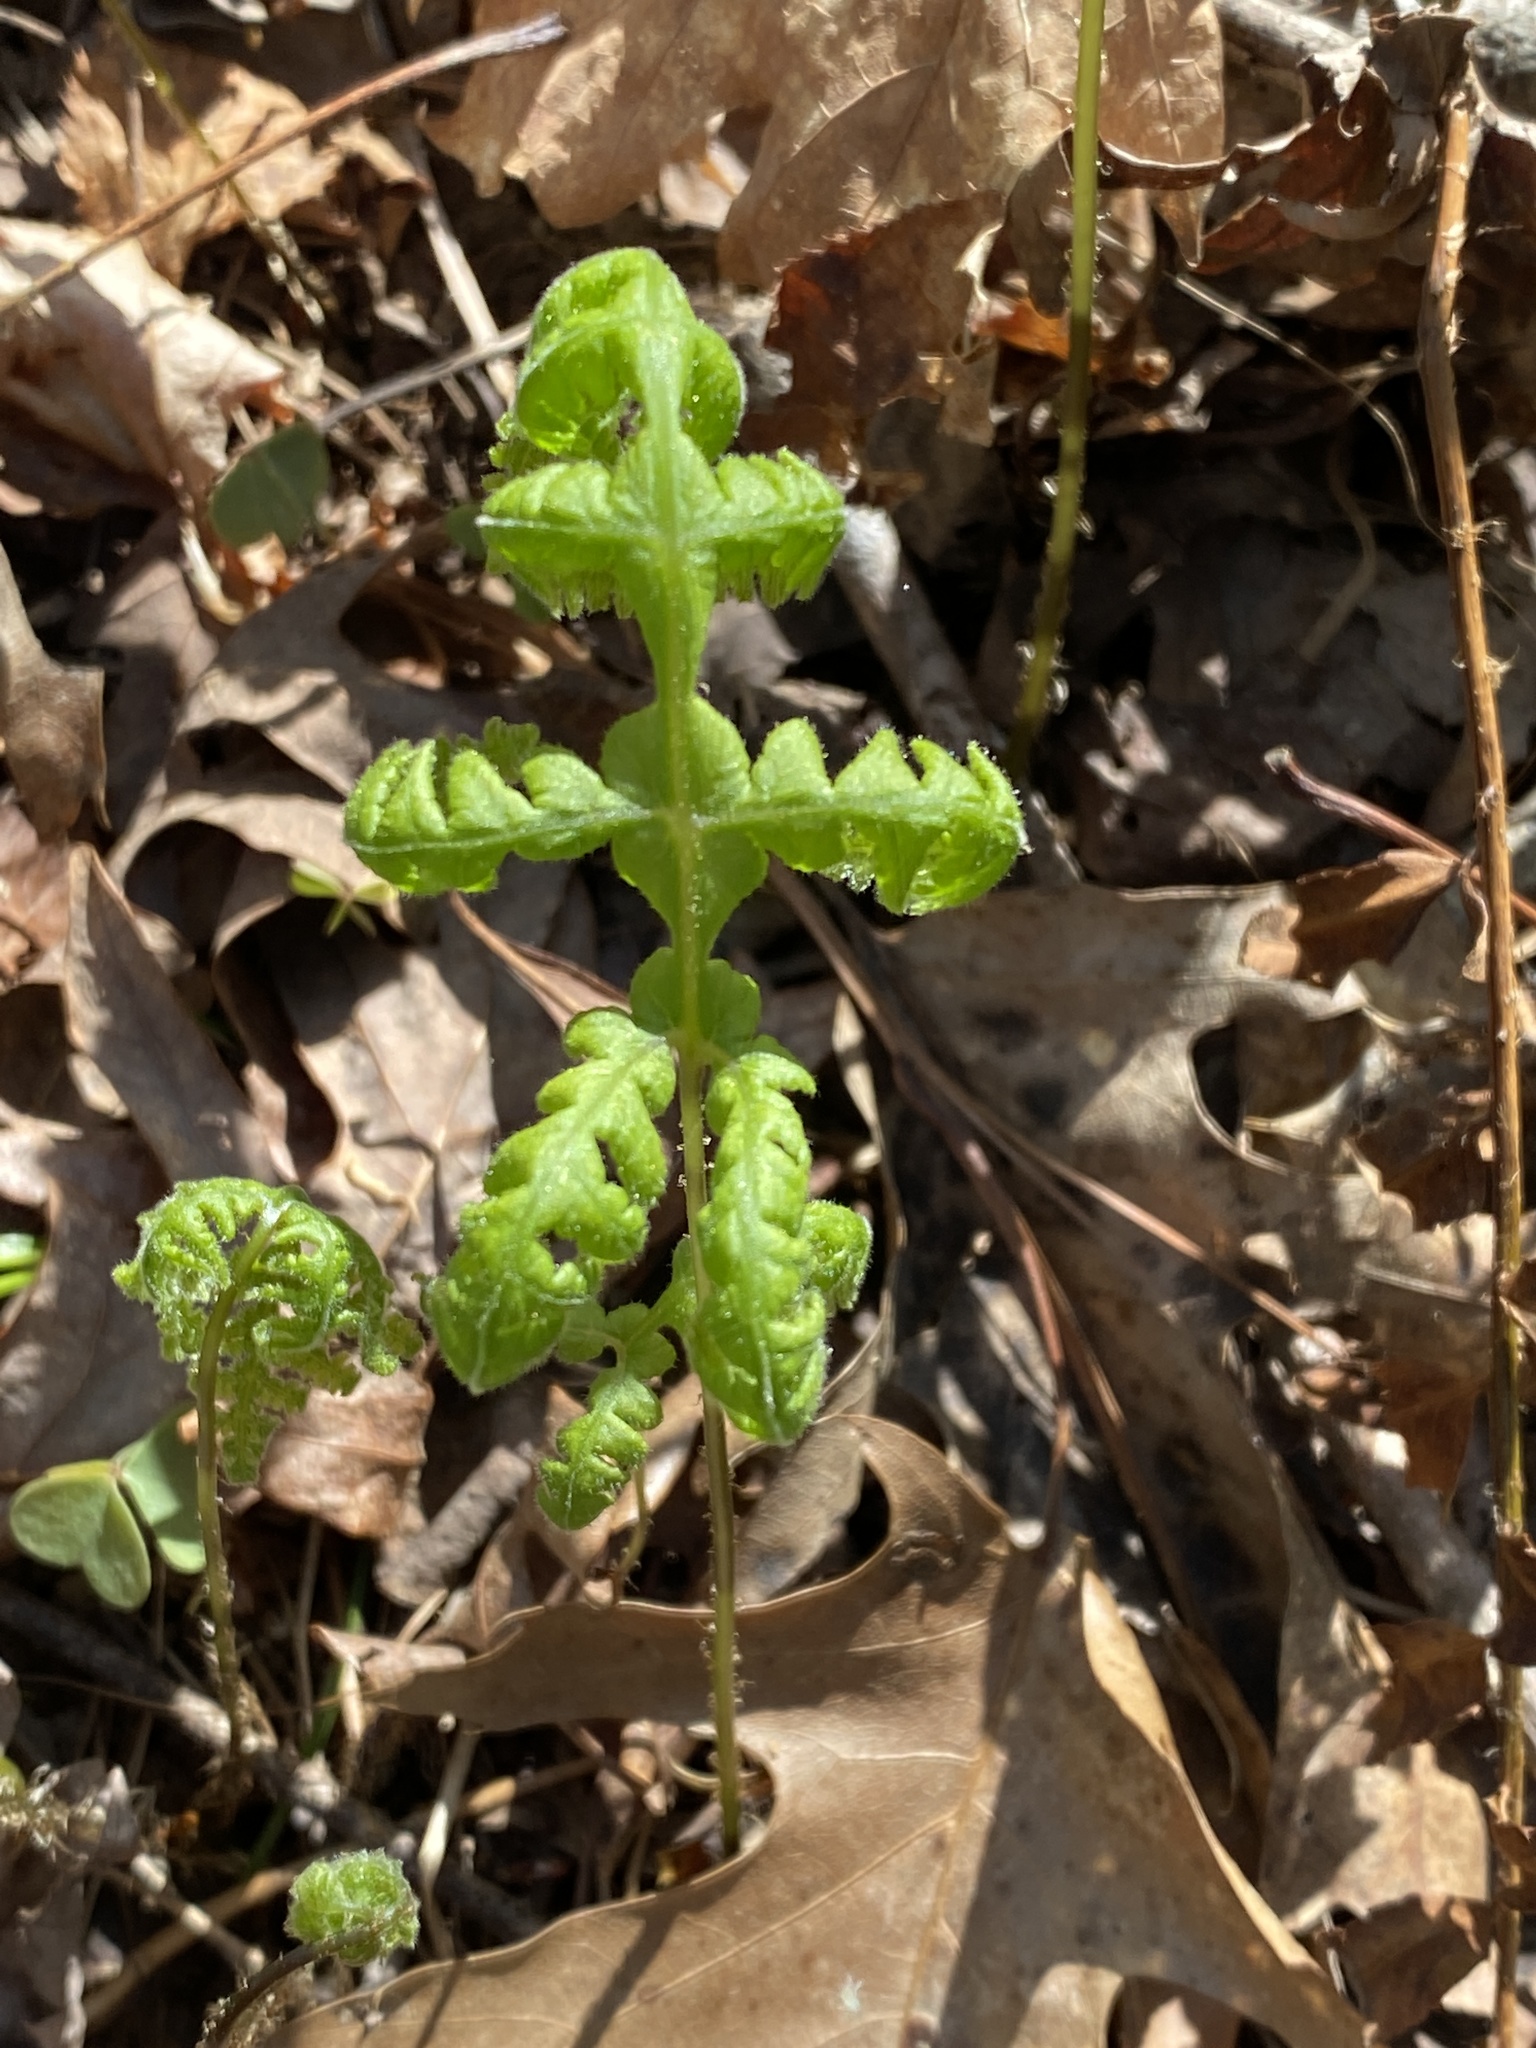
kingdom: Plantae
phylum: Tracheophyta
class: Polypodiopsida
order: Polypodiales
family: Thelypteridaceae
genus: Phegopteris
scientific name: Phegopteris hexagonoptera
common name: Broad beech fern
